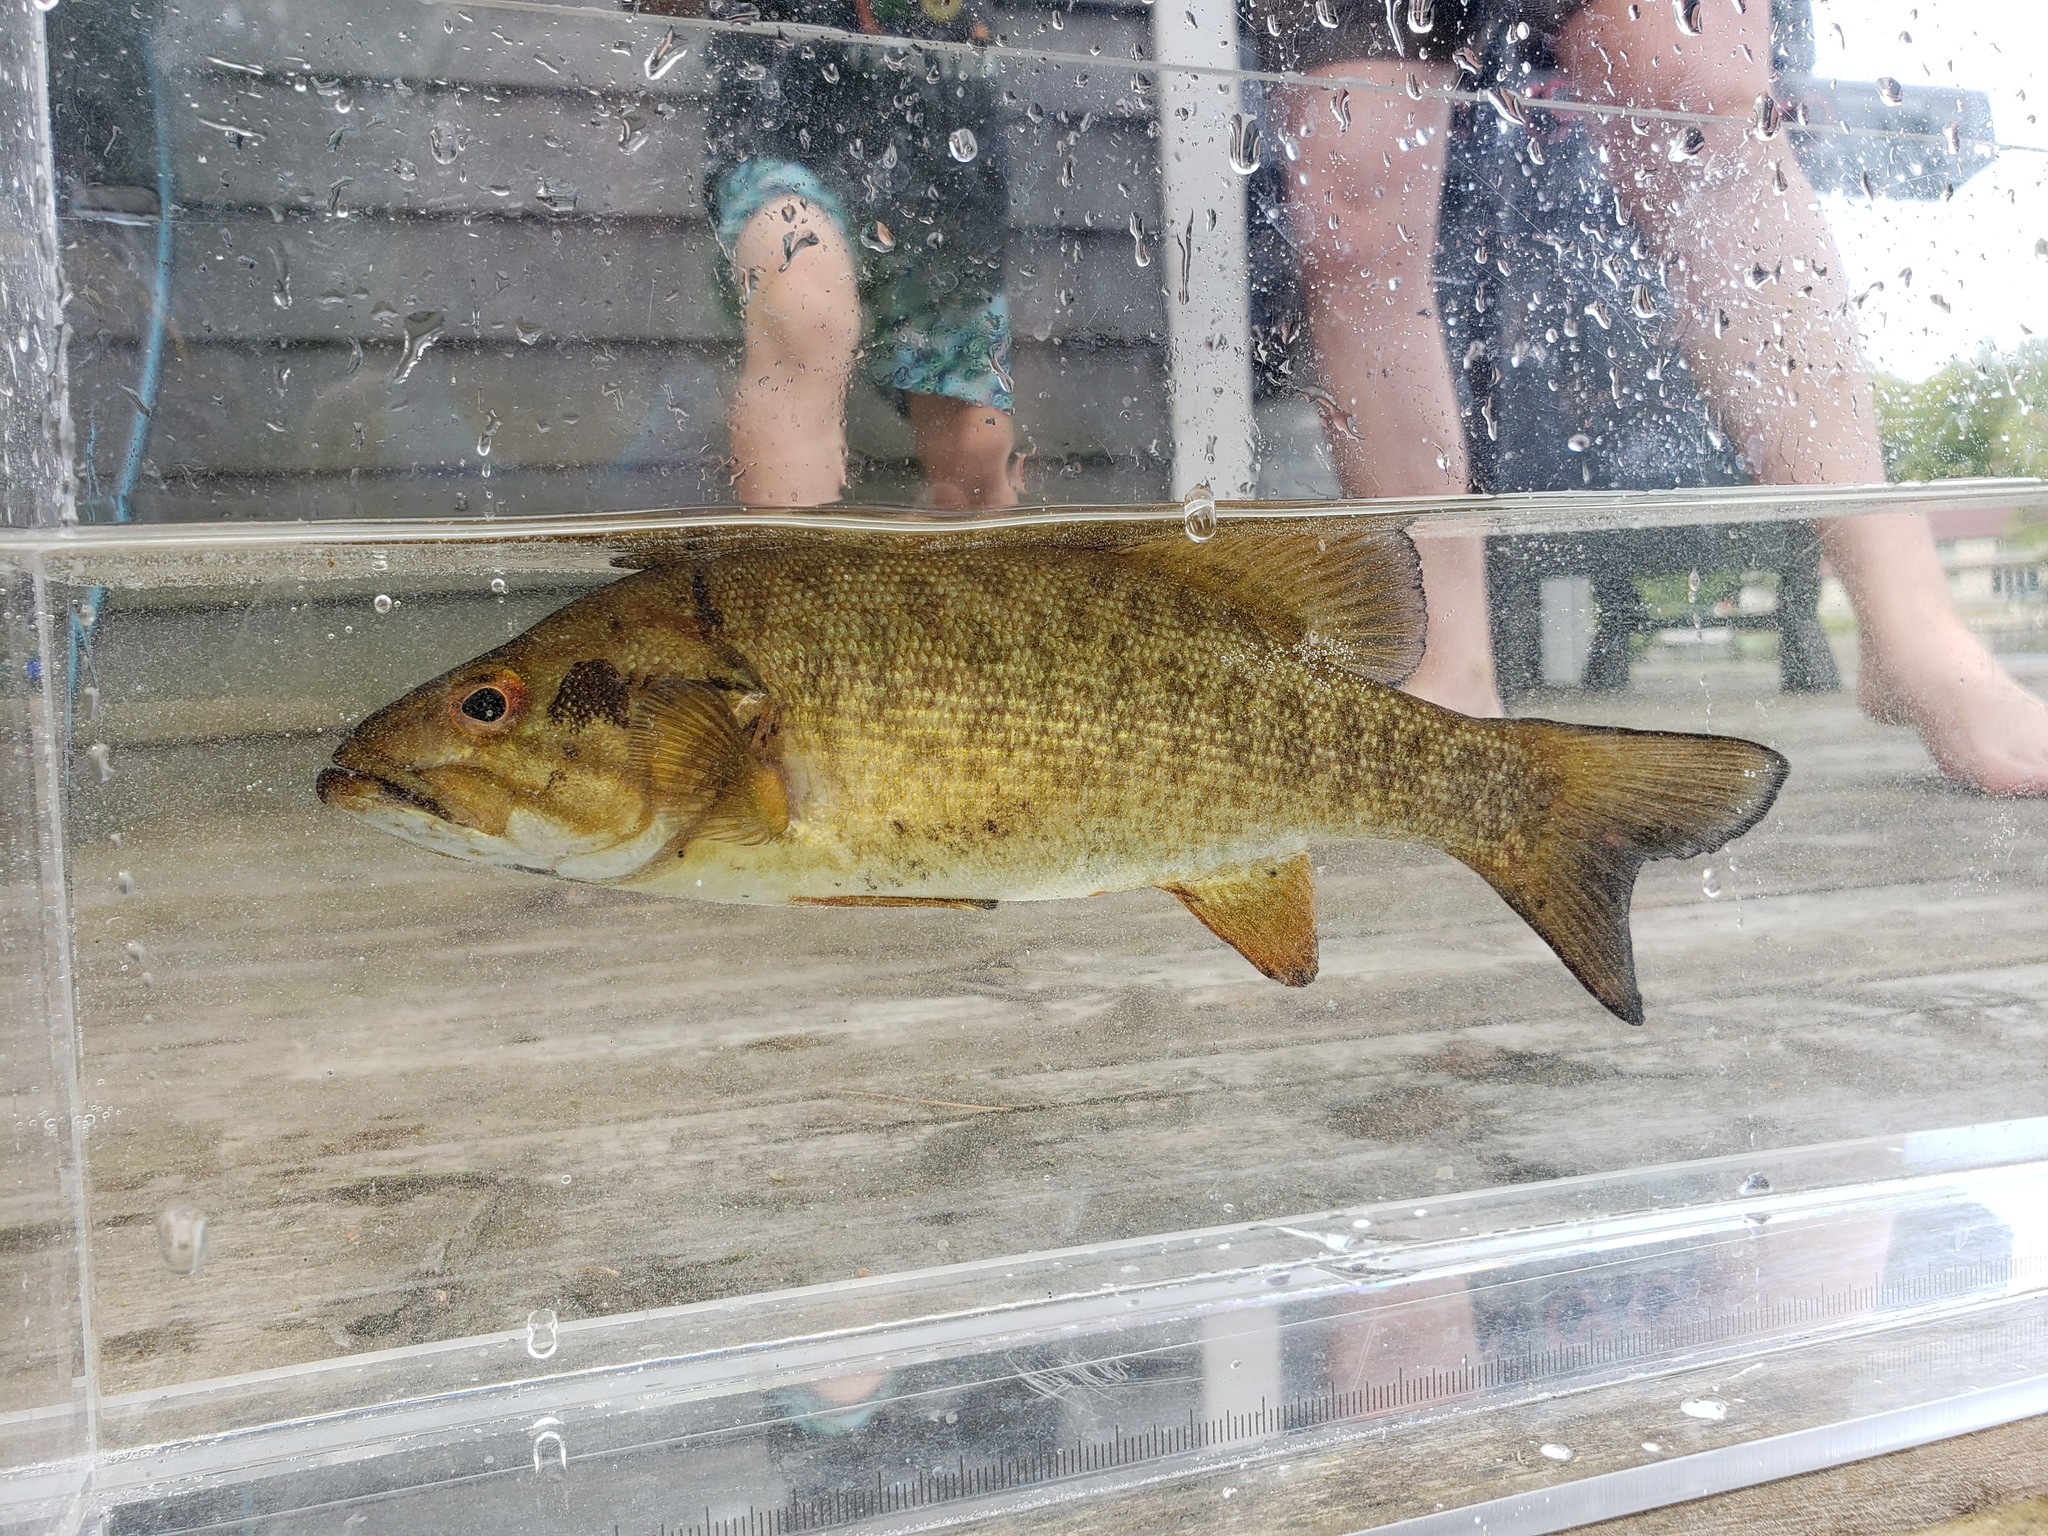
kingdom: Animalia
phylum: Chordata
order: Perciformes
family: Centrarchidae
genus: Micropterus
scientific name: Micropterus dolomieu
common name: Smallmouth bass
